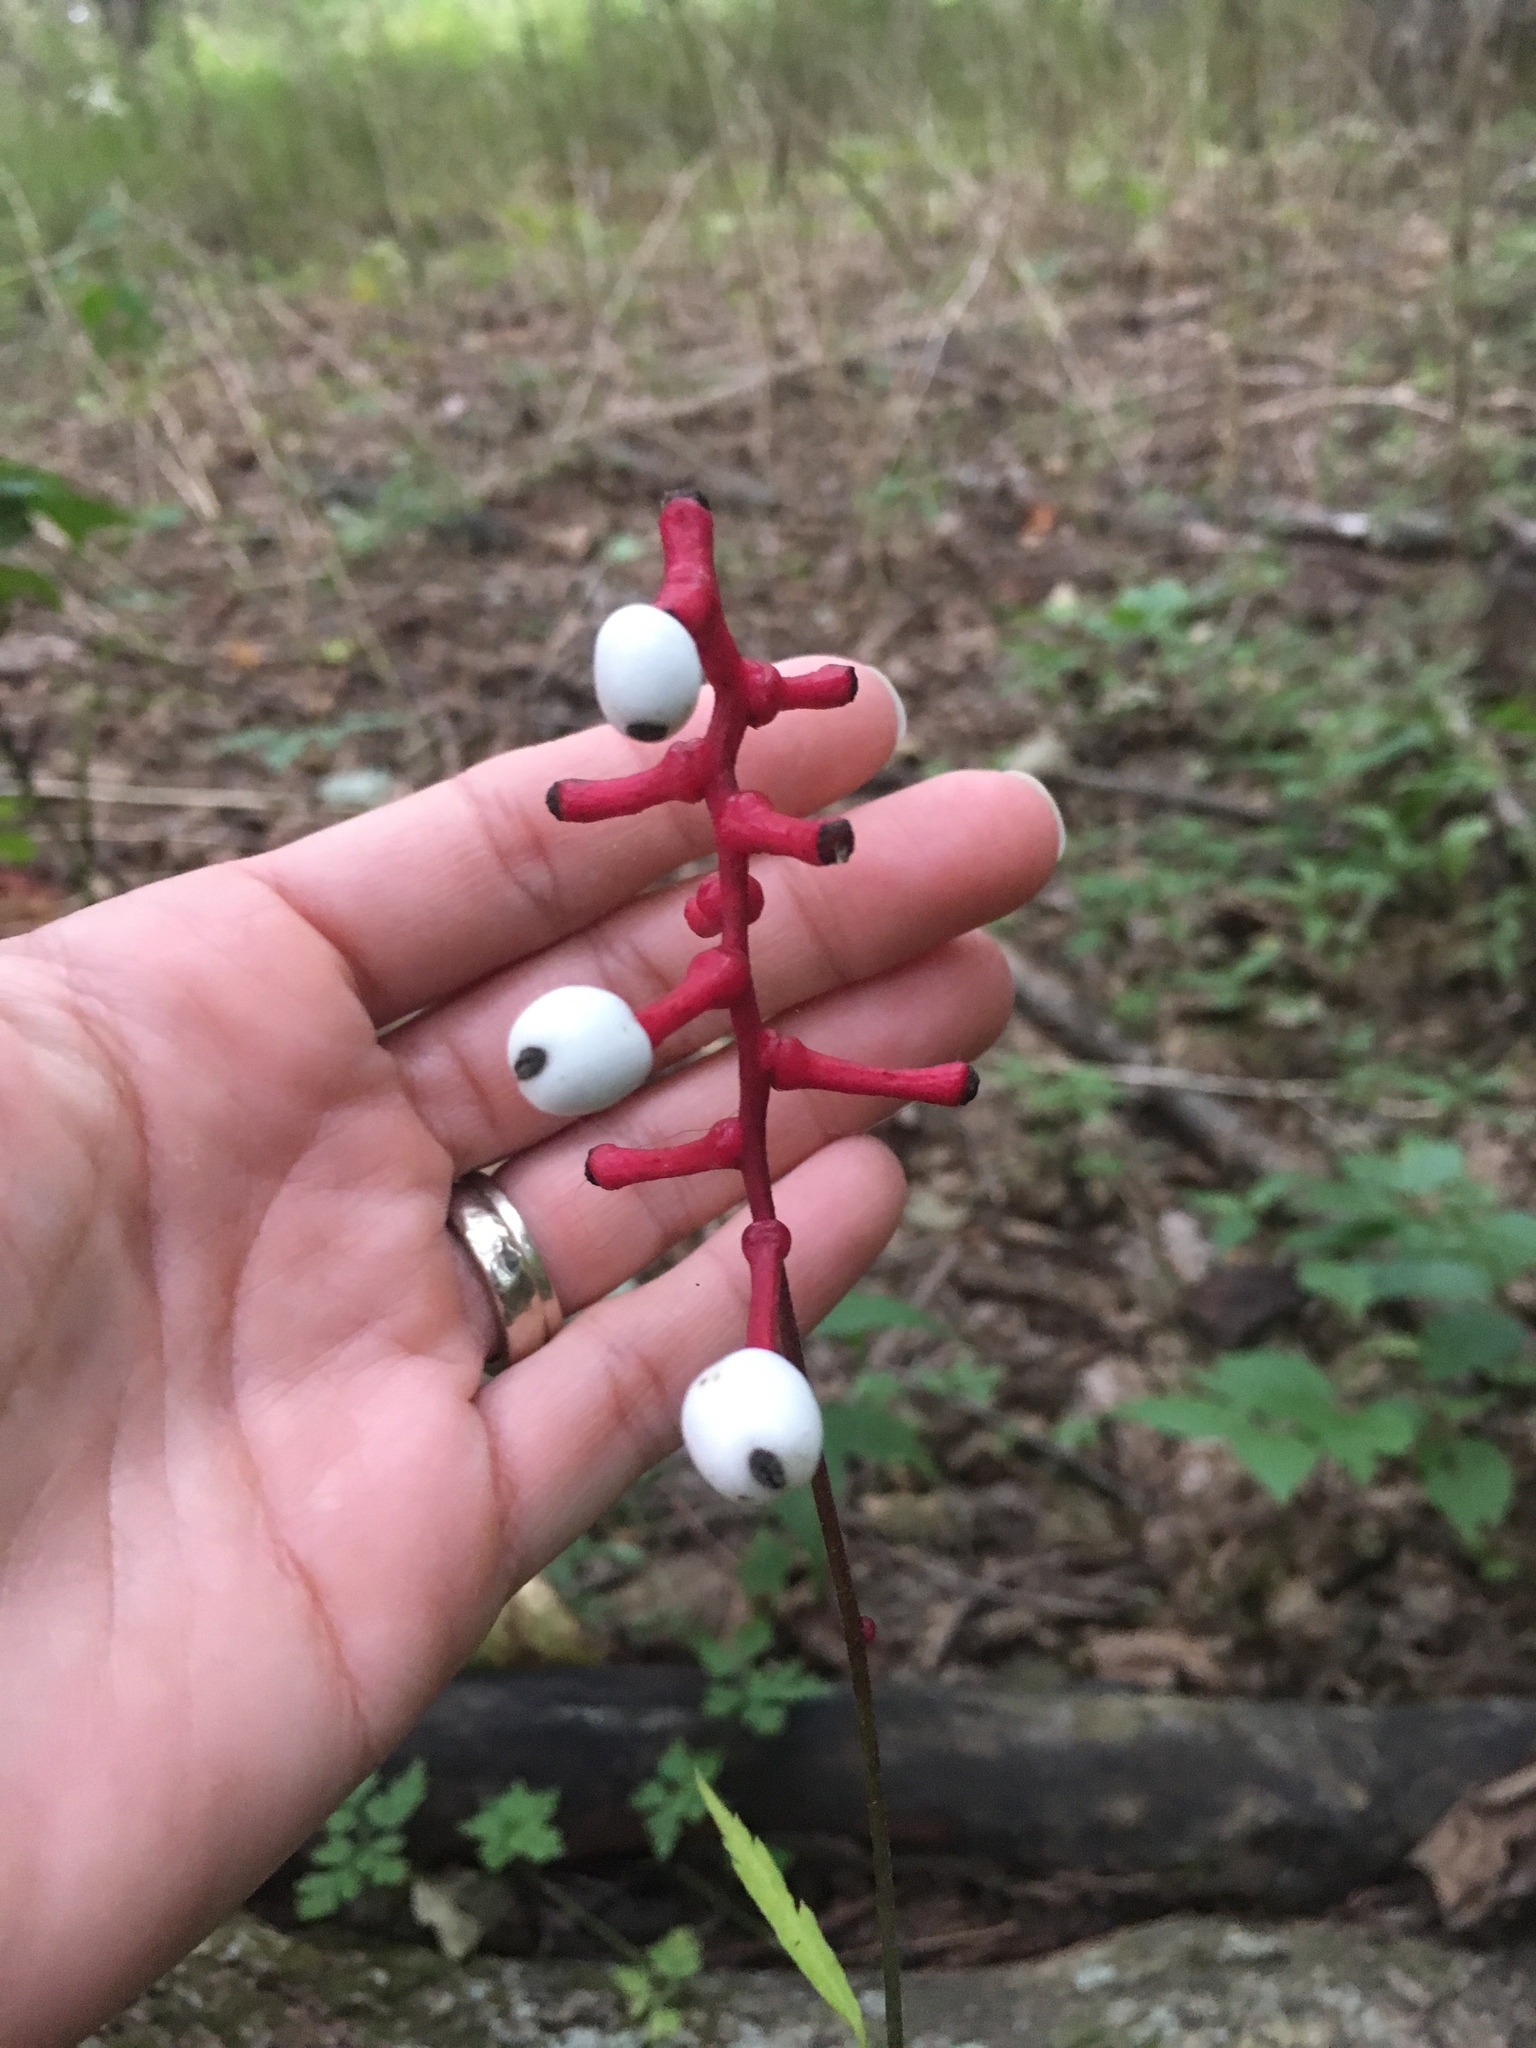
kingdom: Plantae
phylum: Tracheophyta
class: Magnoliopsida
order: Ranunculales
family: Ranunculaceae
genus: Actaea
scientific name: Actaea pachypoda
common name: Doll's-eyes
